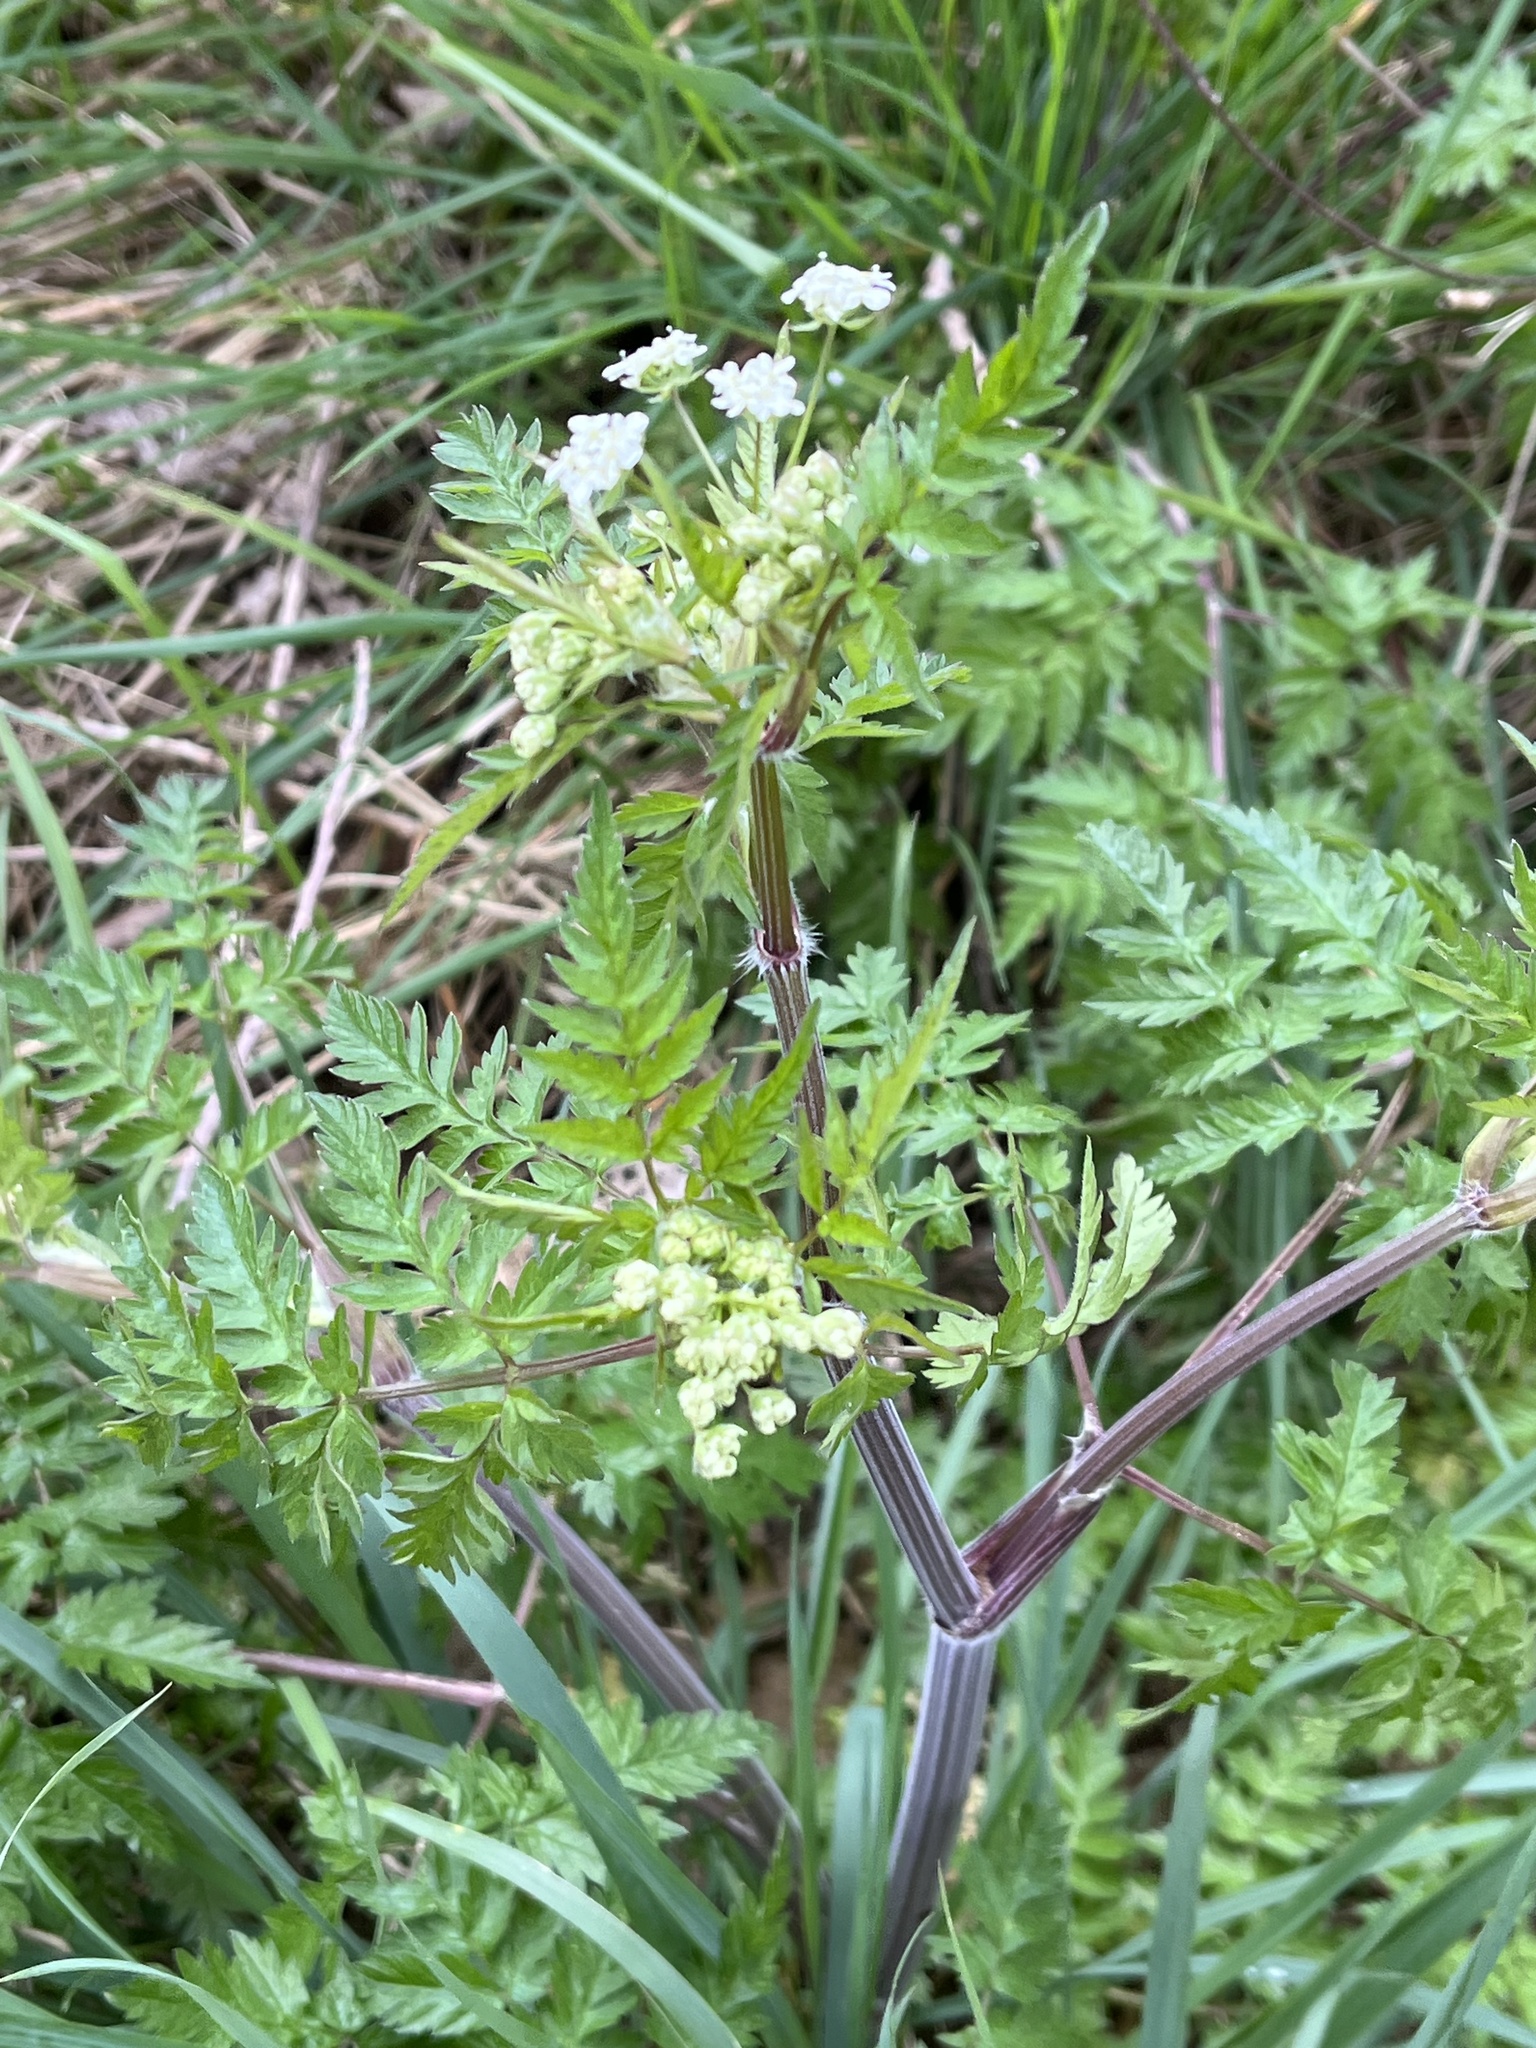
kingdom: Plantae
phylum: Tracheophyta
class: Magnoliopsida
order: Apiales
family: Apiaceae
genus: Anthriscus
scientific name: Anthriscus sylvestris
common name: Cow parsley
